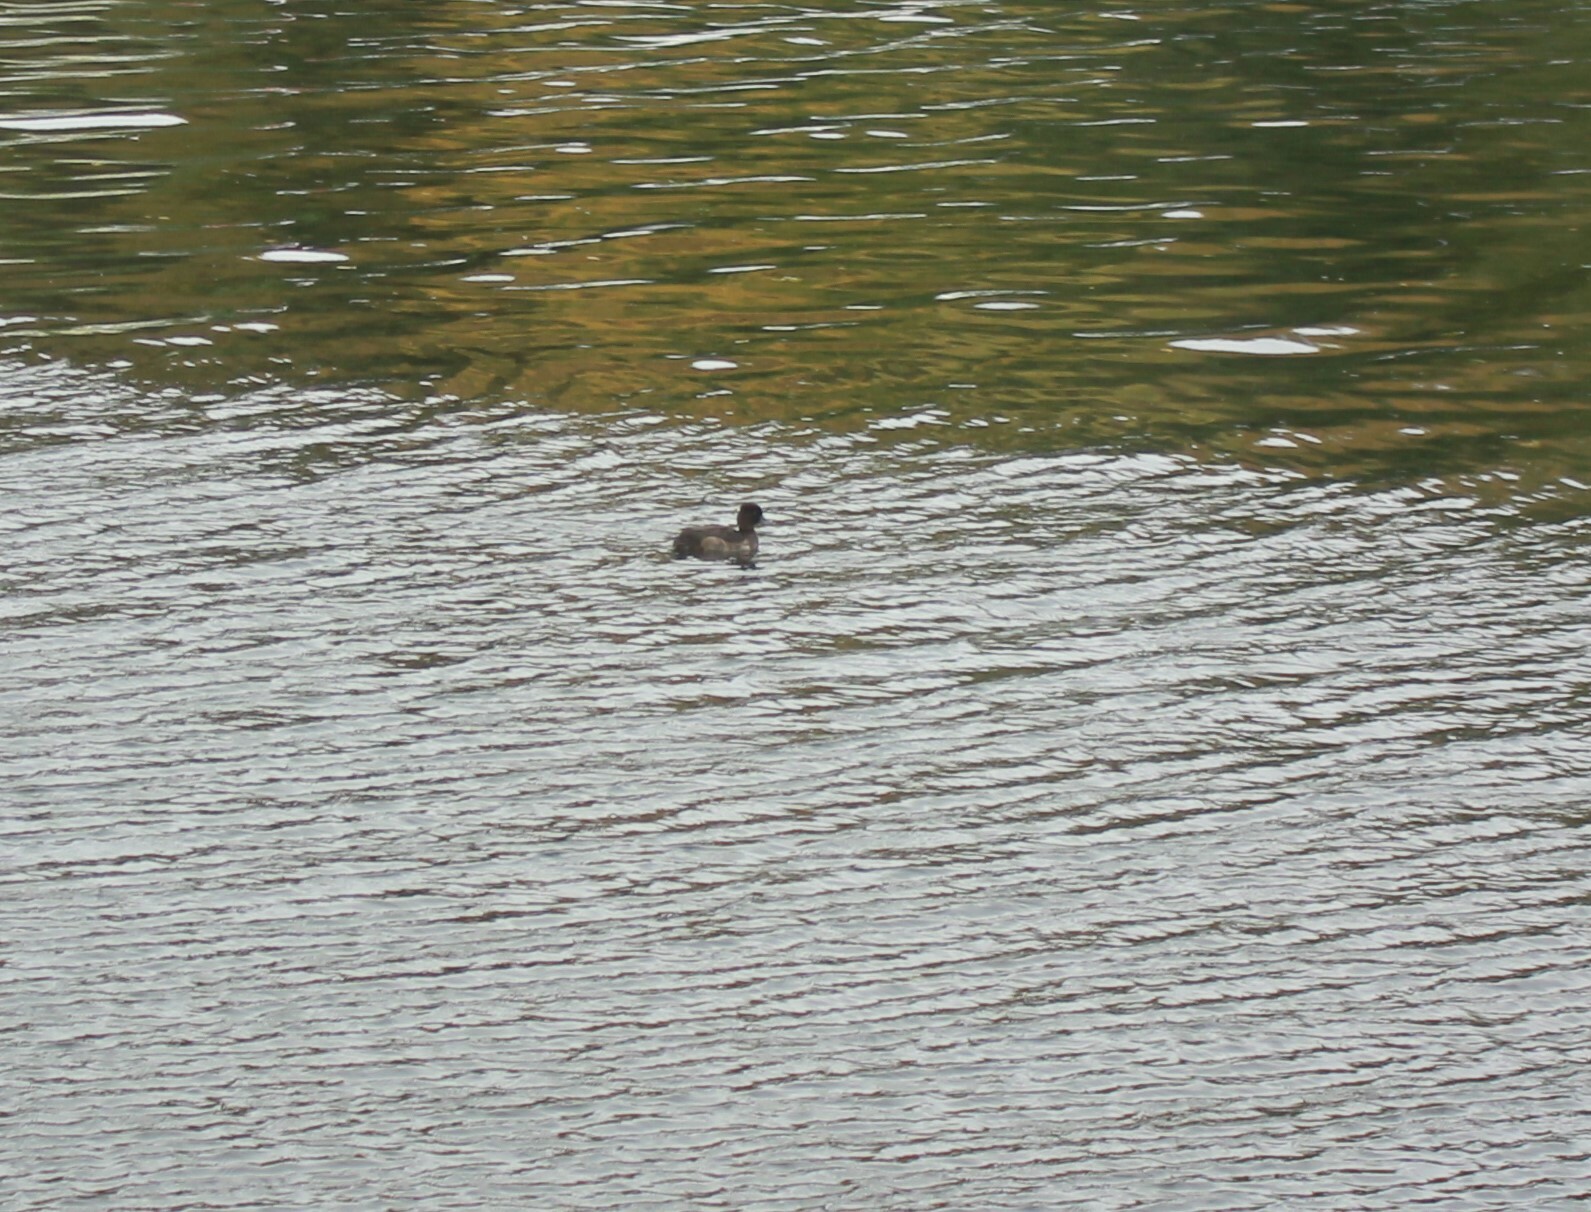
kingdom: Animalia
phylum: Chordata
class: Aves
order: Anseriformes
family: Anatidae
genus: Aythya
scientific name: Aythya fuligula
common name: Tufted duck
